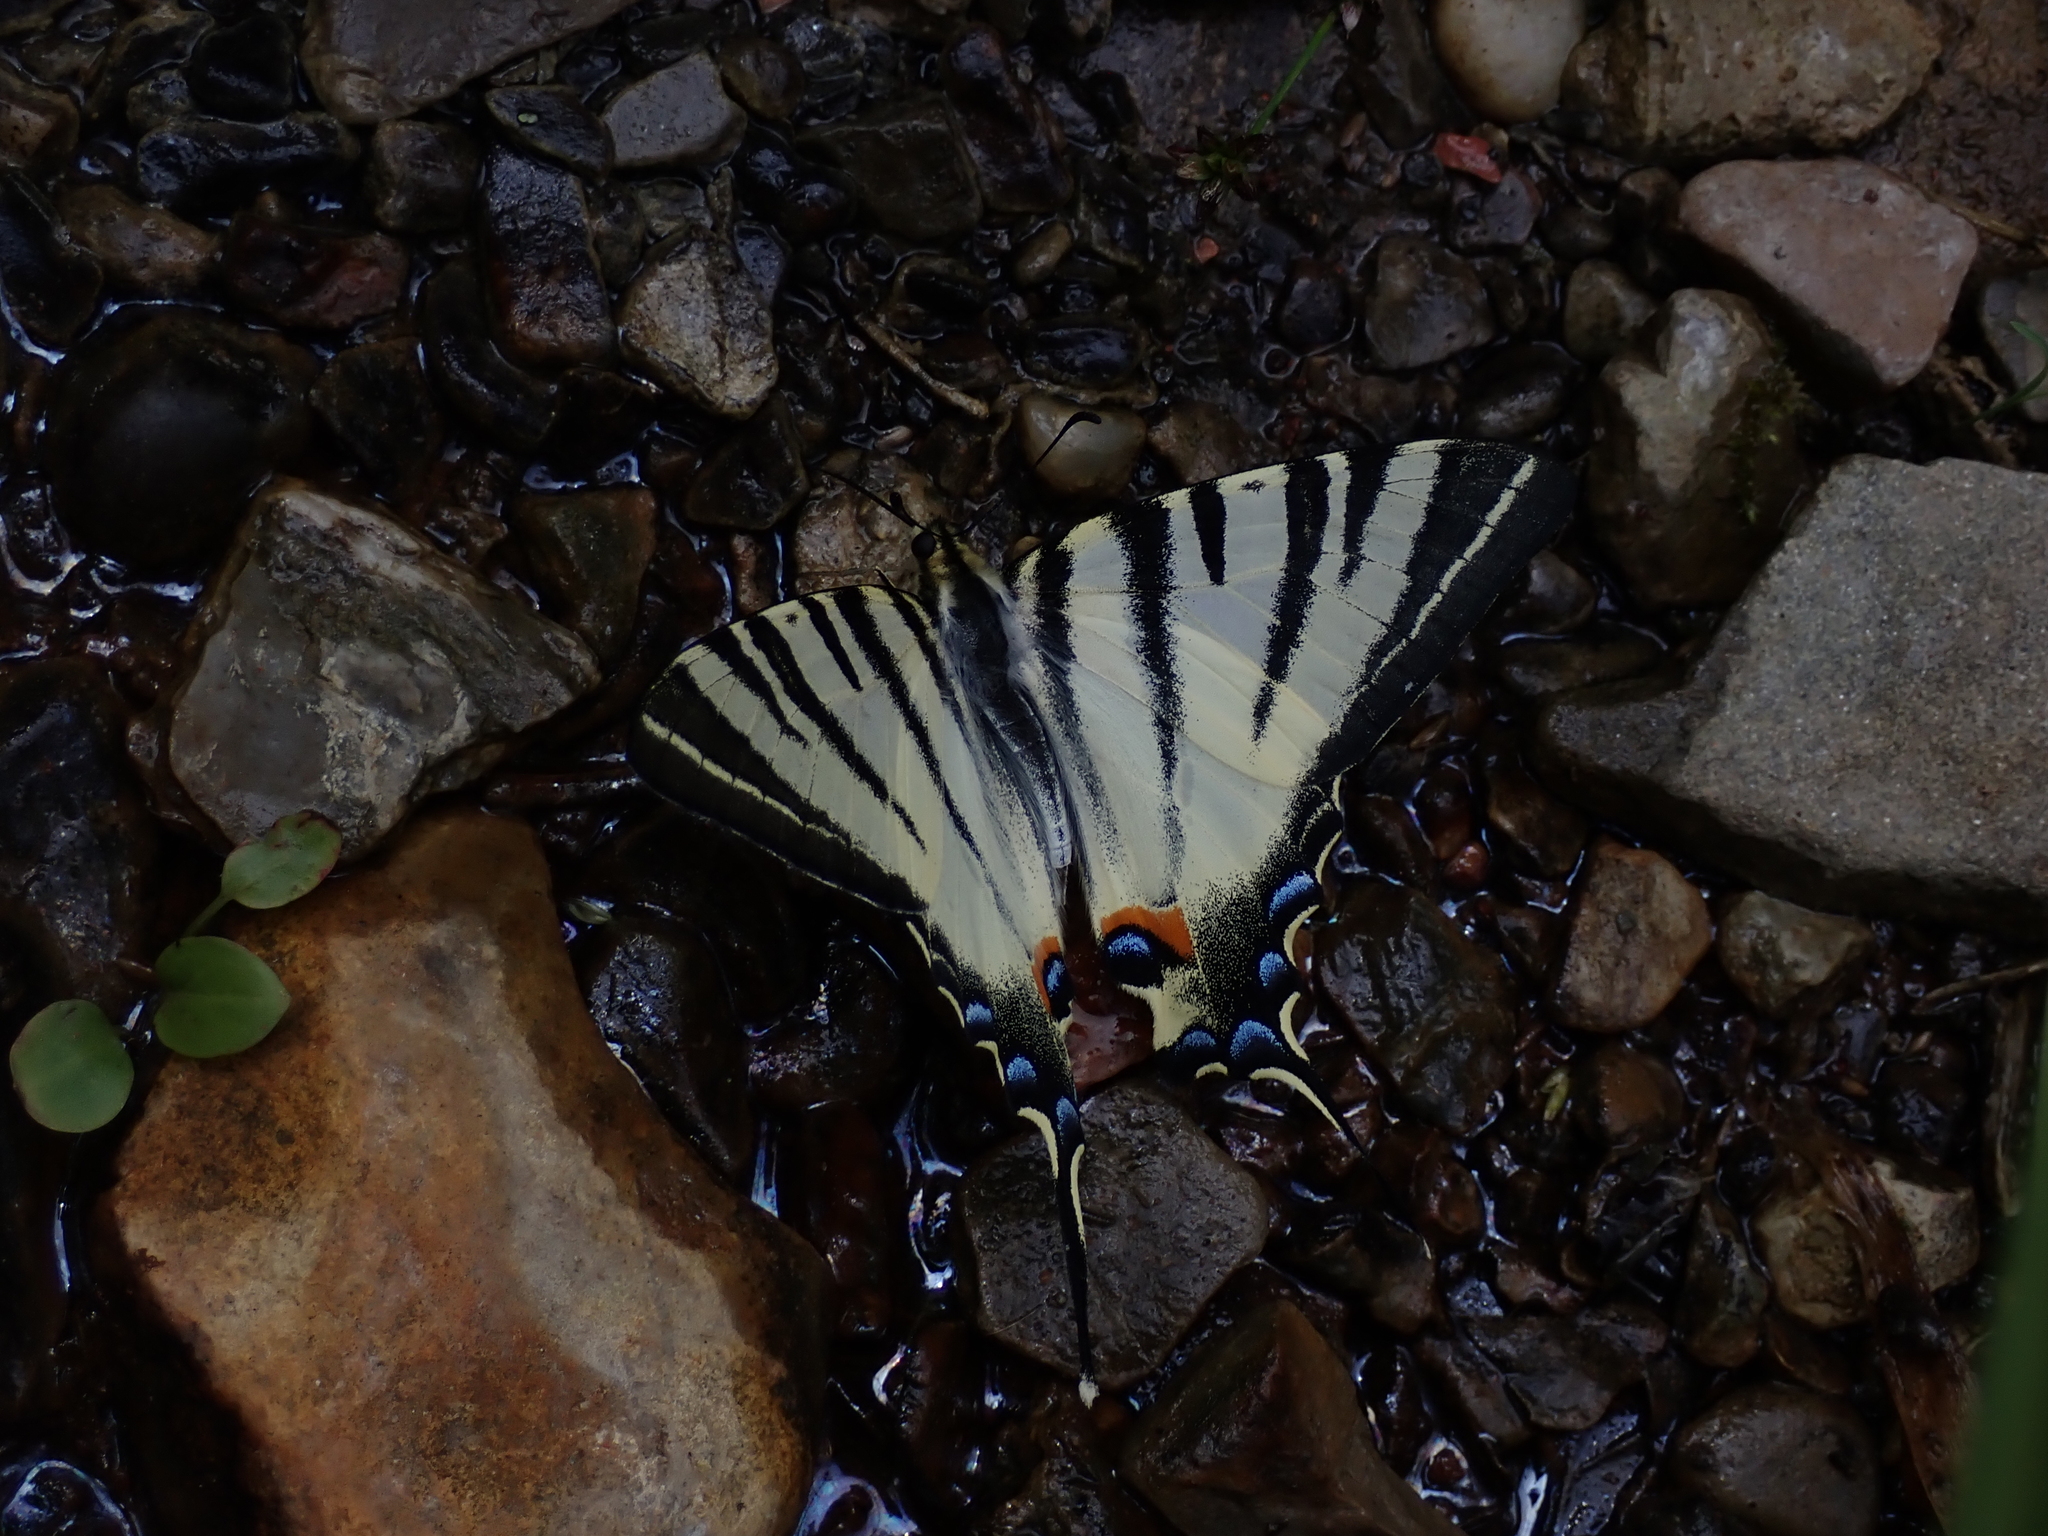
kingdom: Animalia
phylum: Arthropoda
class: Insecta
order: Lepidoptera
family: Papilionidae
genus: Iphiclides
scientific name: Iphiclides podalirius
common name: Scarce swallowtail
